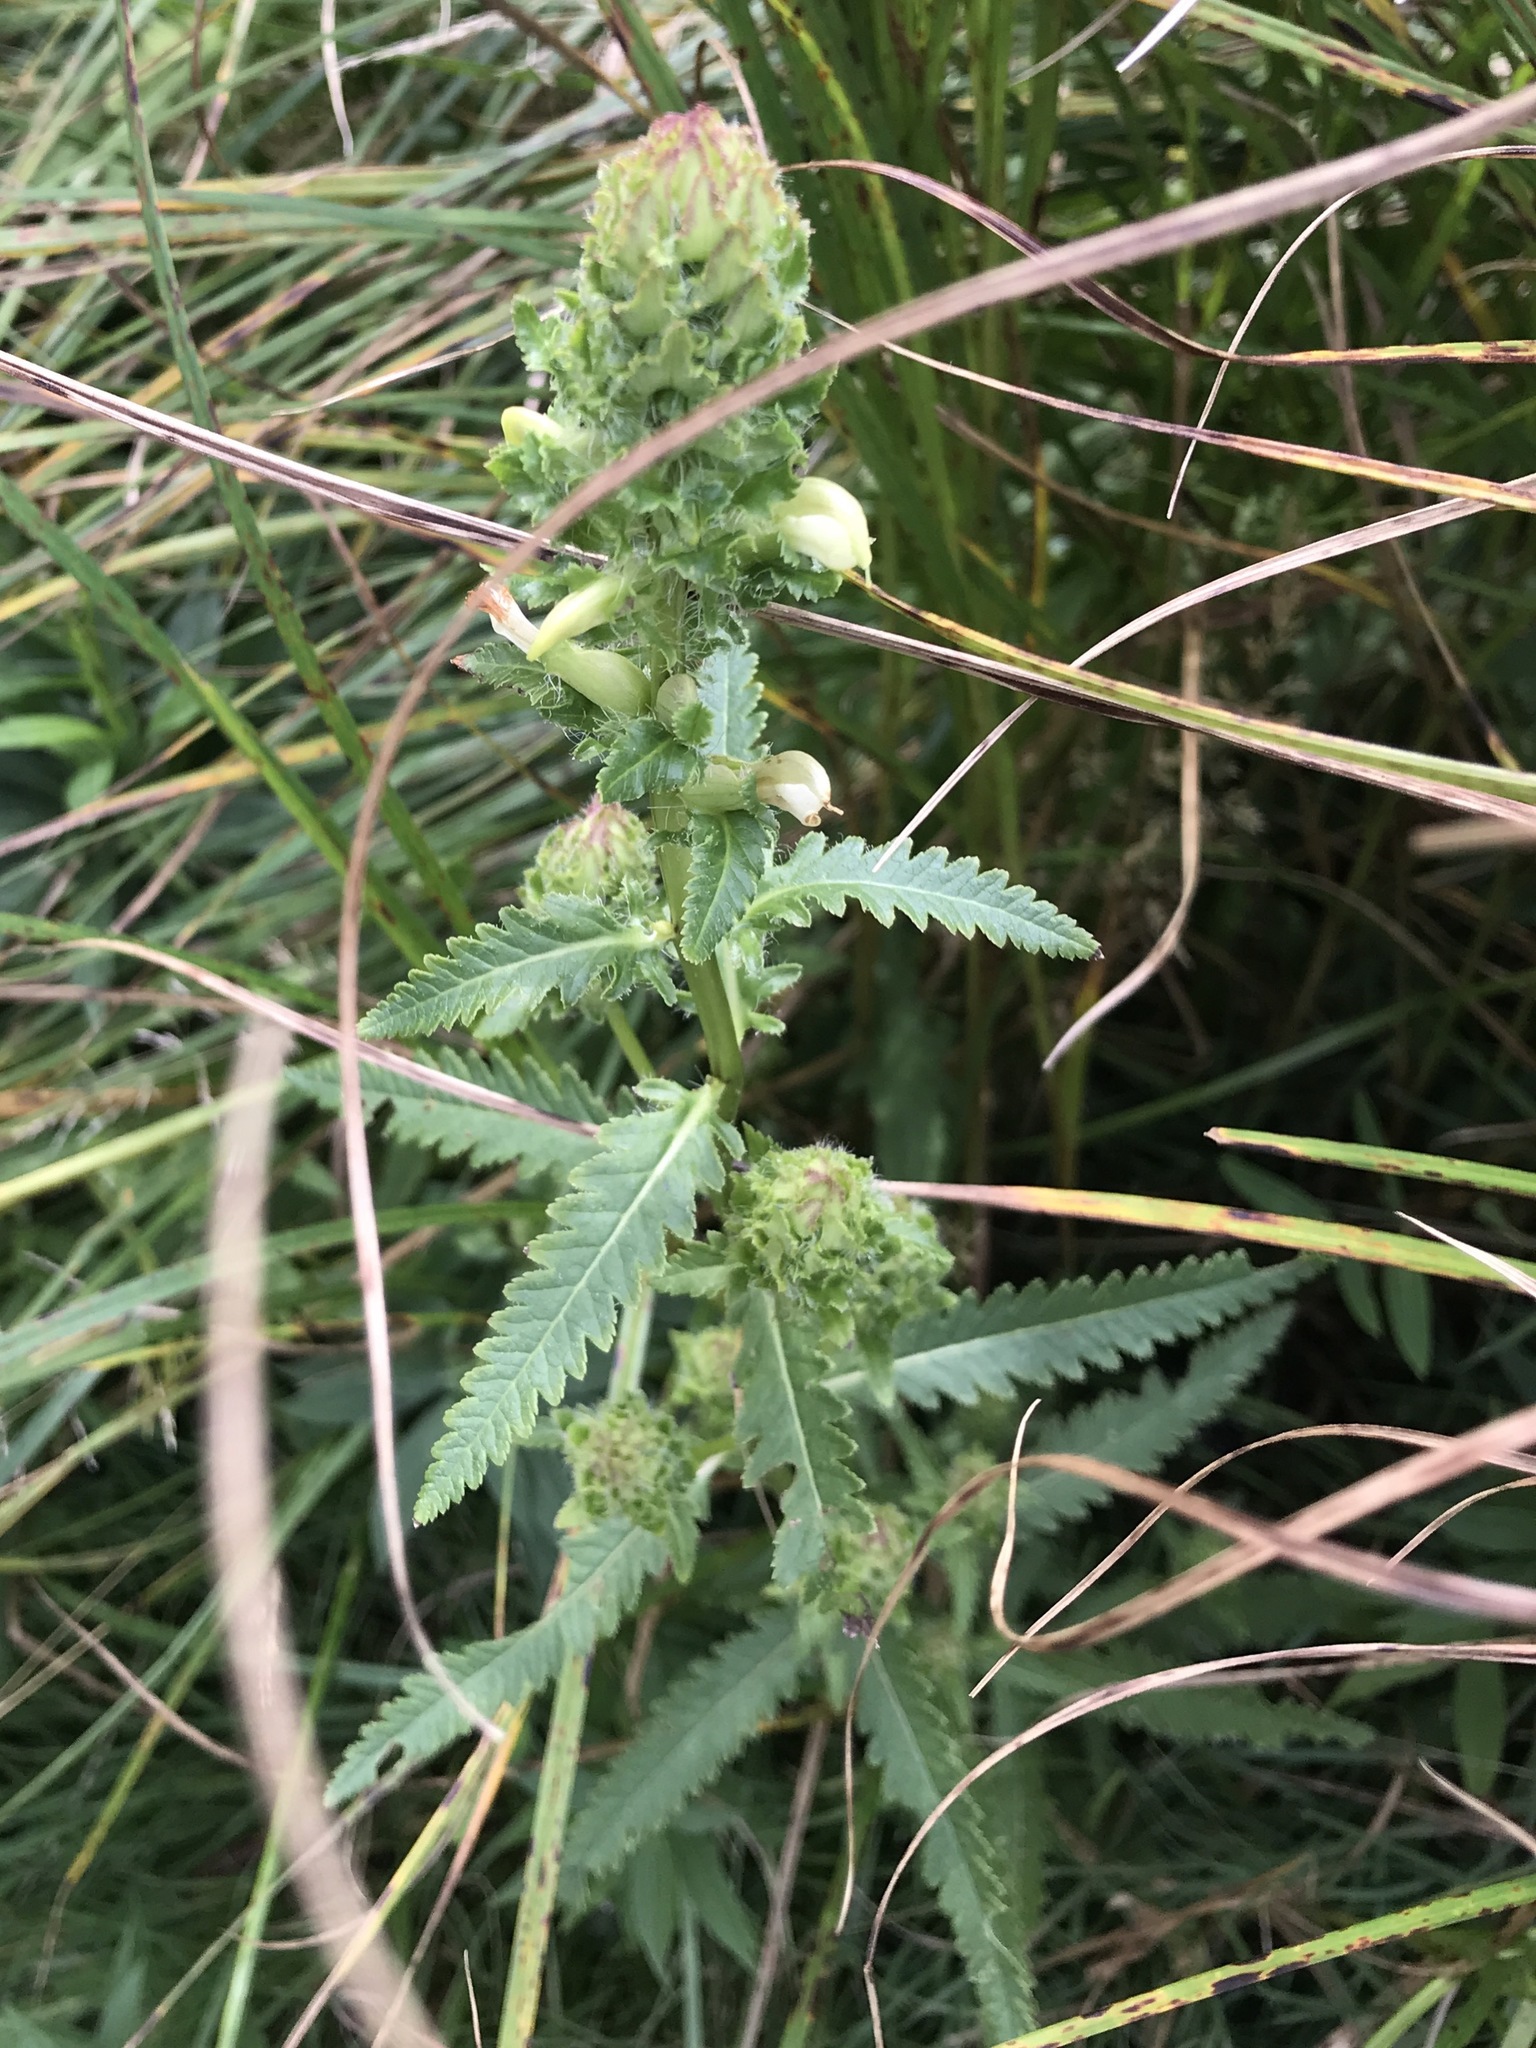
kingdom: Plantae
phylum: Tracheophyta
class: Magnoliopsida
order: Lamiales
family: Orobanchaceae
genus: Pedicularis
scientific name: Pedicularis lanceolata
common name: Swamp lousewort
